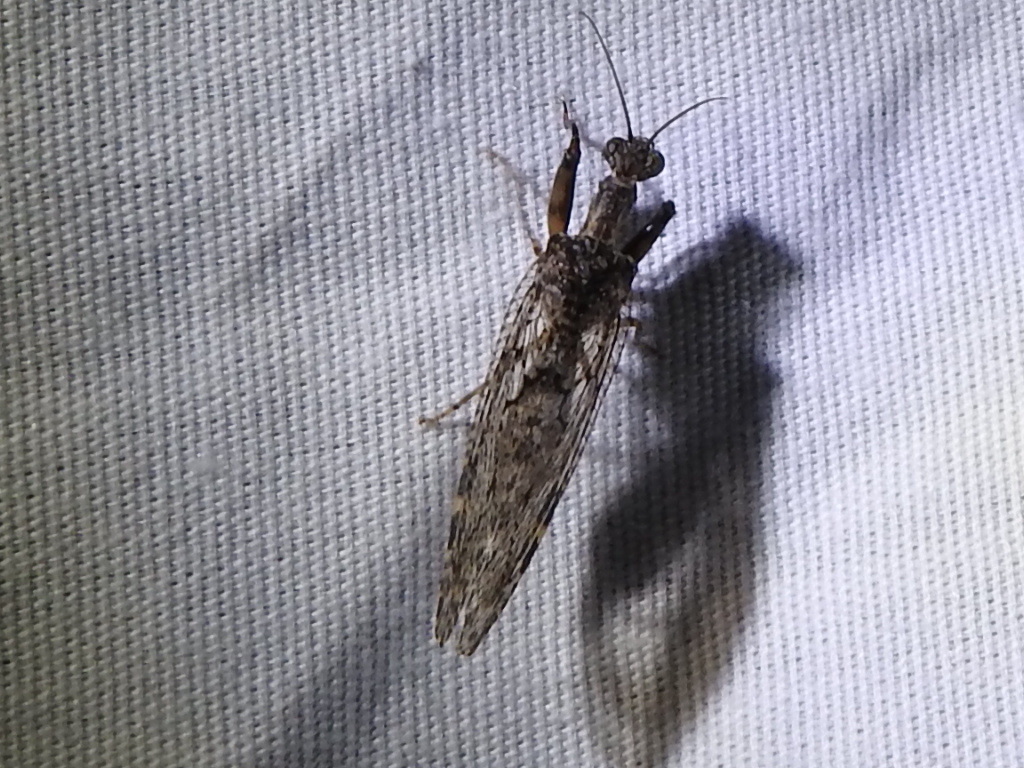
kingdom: Animalia
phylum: Arthropoda
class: Insecta
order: Neuroptera
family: Mantispidae
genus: Plega
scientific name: Plega
